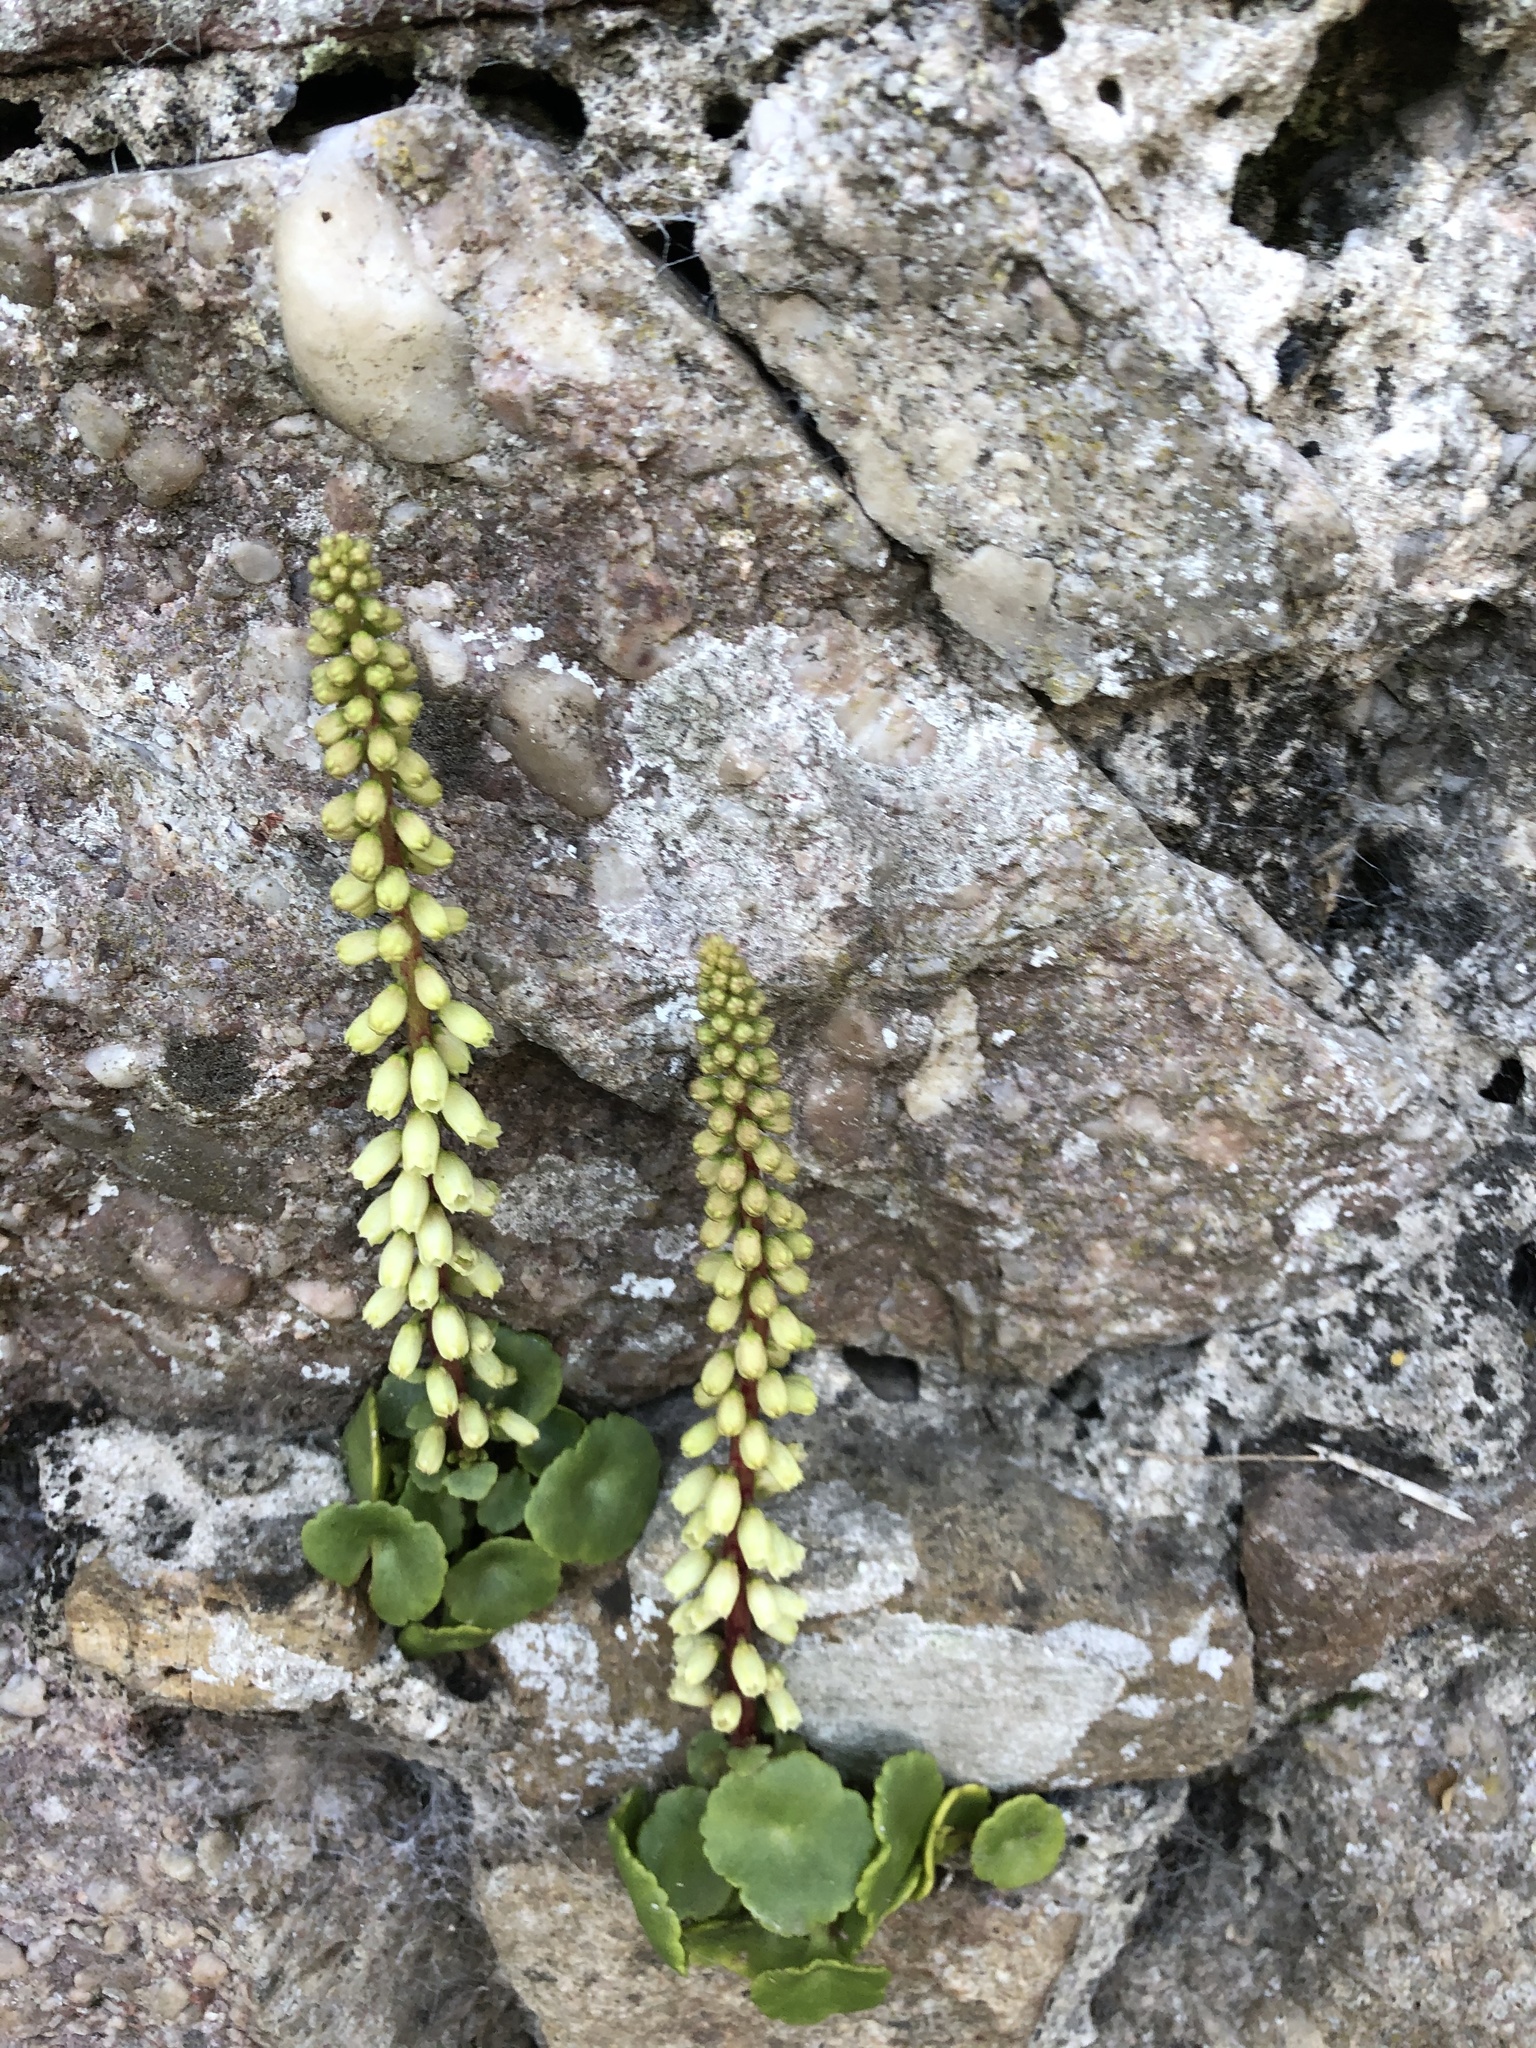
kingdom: Plantae
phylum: Tracheophyta
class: Magnoliopsida
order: Saxifragales
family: Crassulaceae
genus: Umbilicus
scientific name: Umbilicus rupestris
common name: Navelwort
